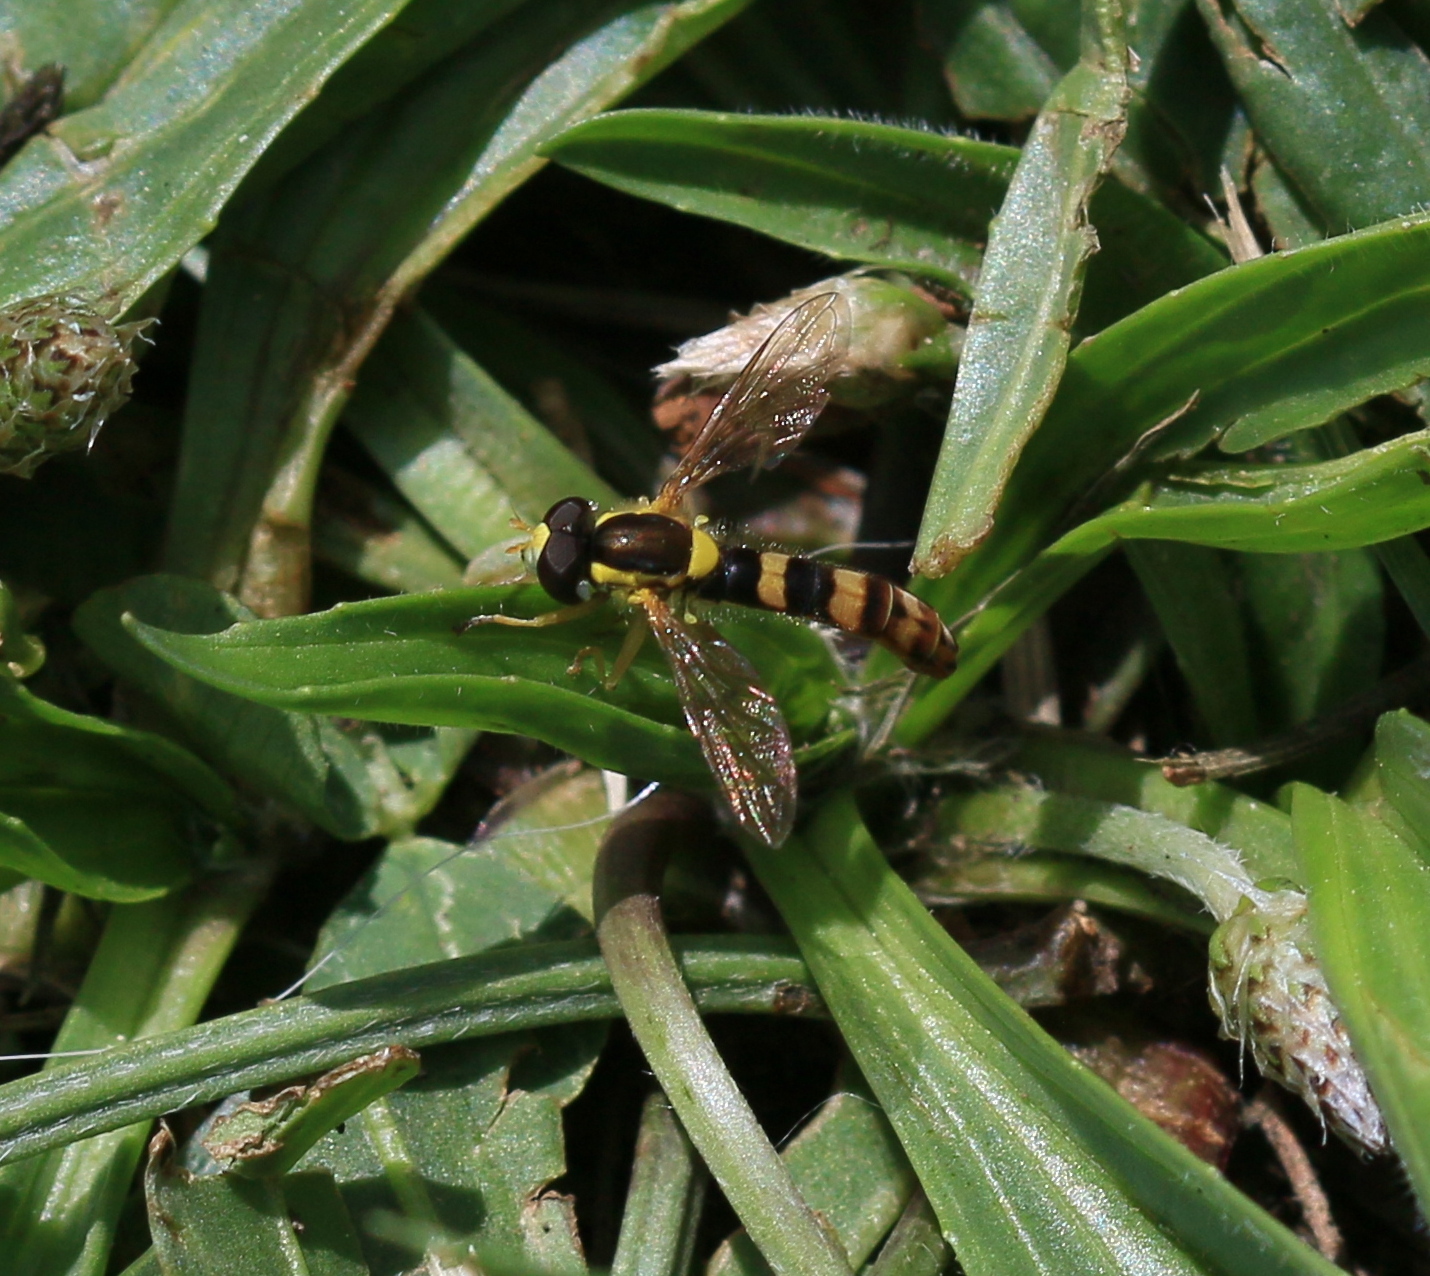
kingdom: Animalia
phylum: Arthropoda
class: Insecta
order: Diptera
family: Syrphidae
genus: Sphaerophoria
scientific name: Sphaerophoria scripta
